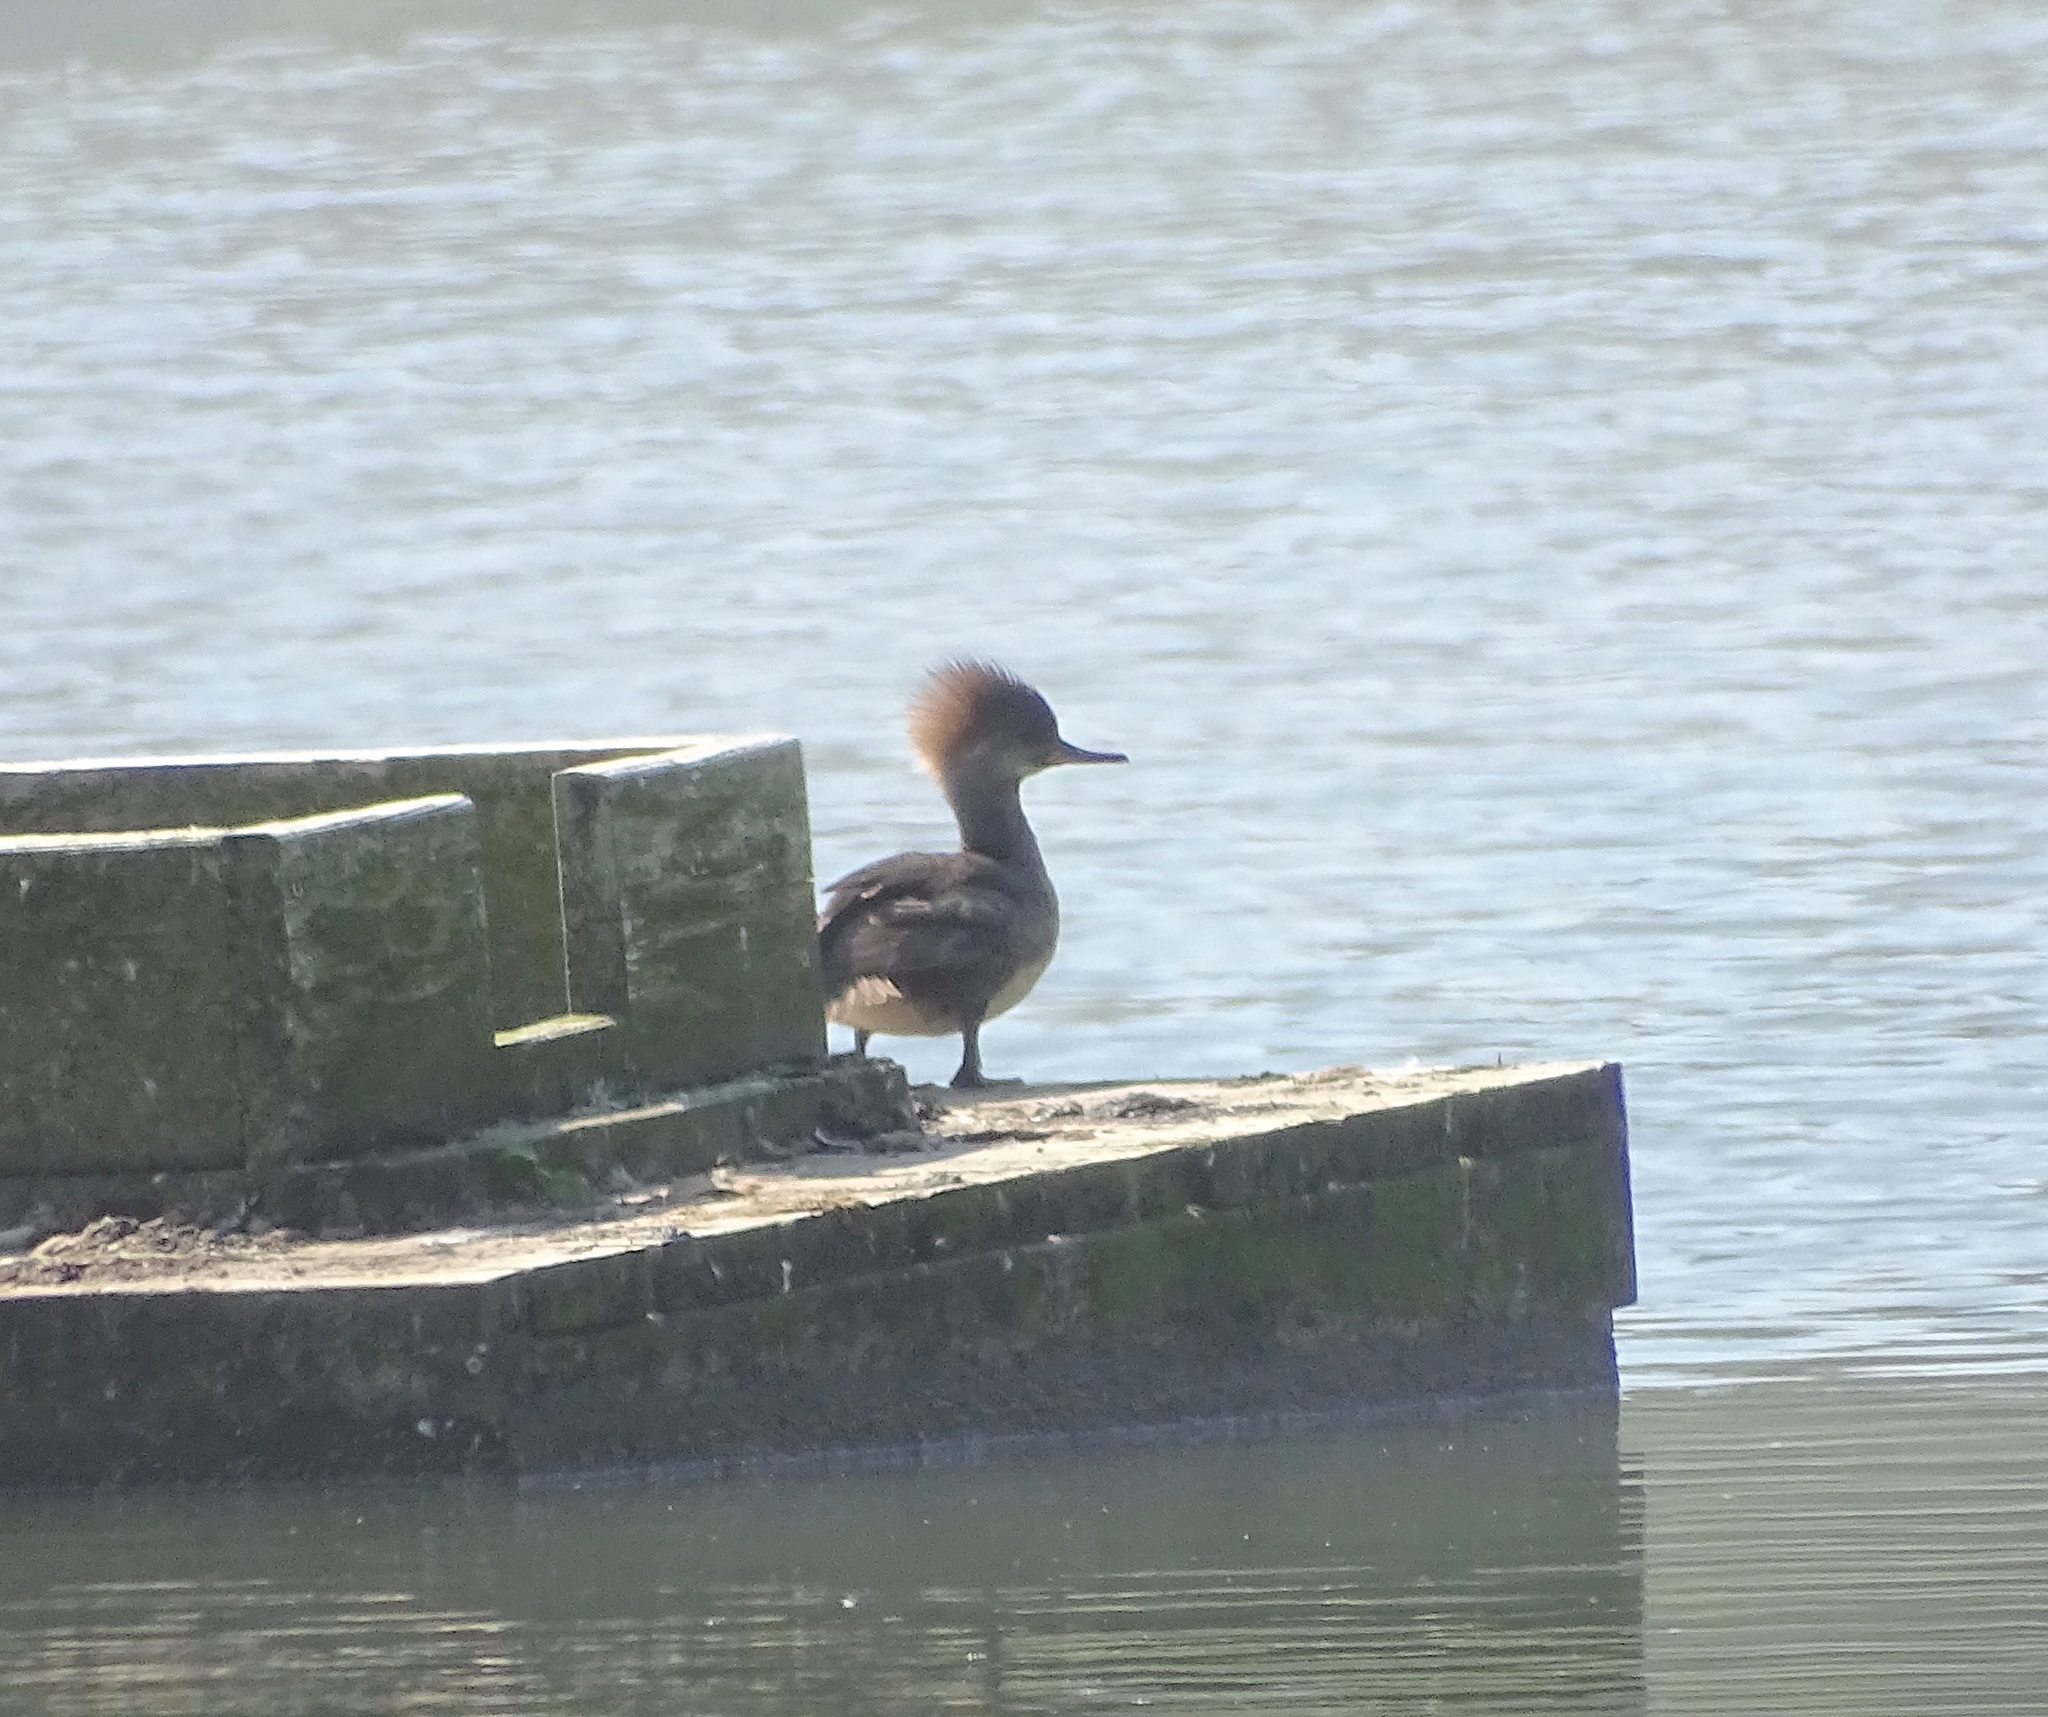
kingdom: Animalia
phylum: Chordata
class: Aves
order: Anseriformes
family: Anatidae
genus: Lophodytes
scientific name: Lophodytes cucullatus
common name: Hooded merganser
